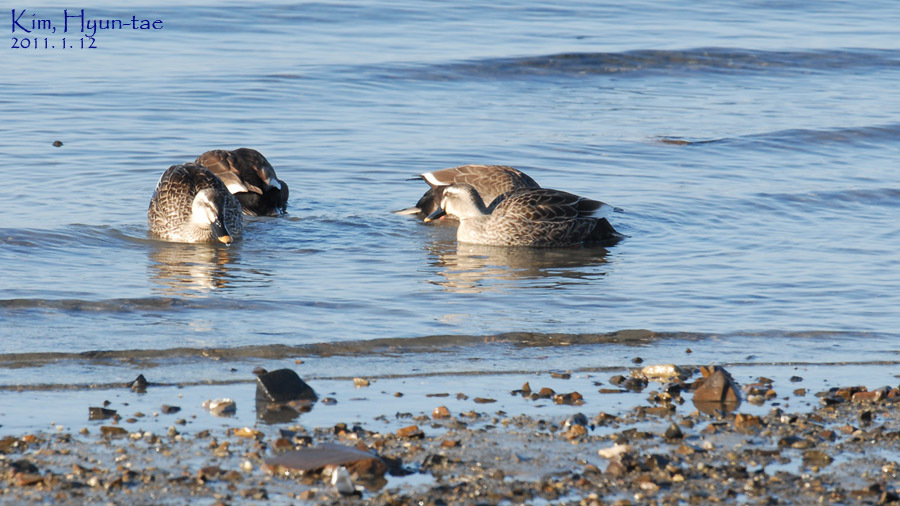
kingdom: Animalia
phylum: Chordata
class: Aves
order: Anseriformes
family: Anatidae
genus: Anas
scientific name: Anas zonorhyncha
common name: Eastern spot-billed duck
